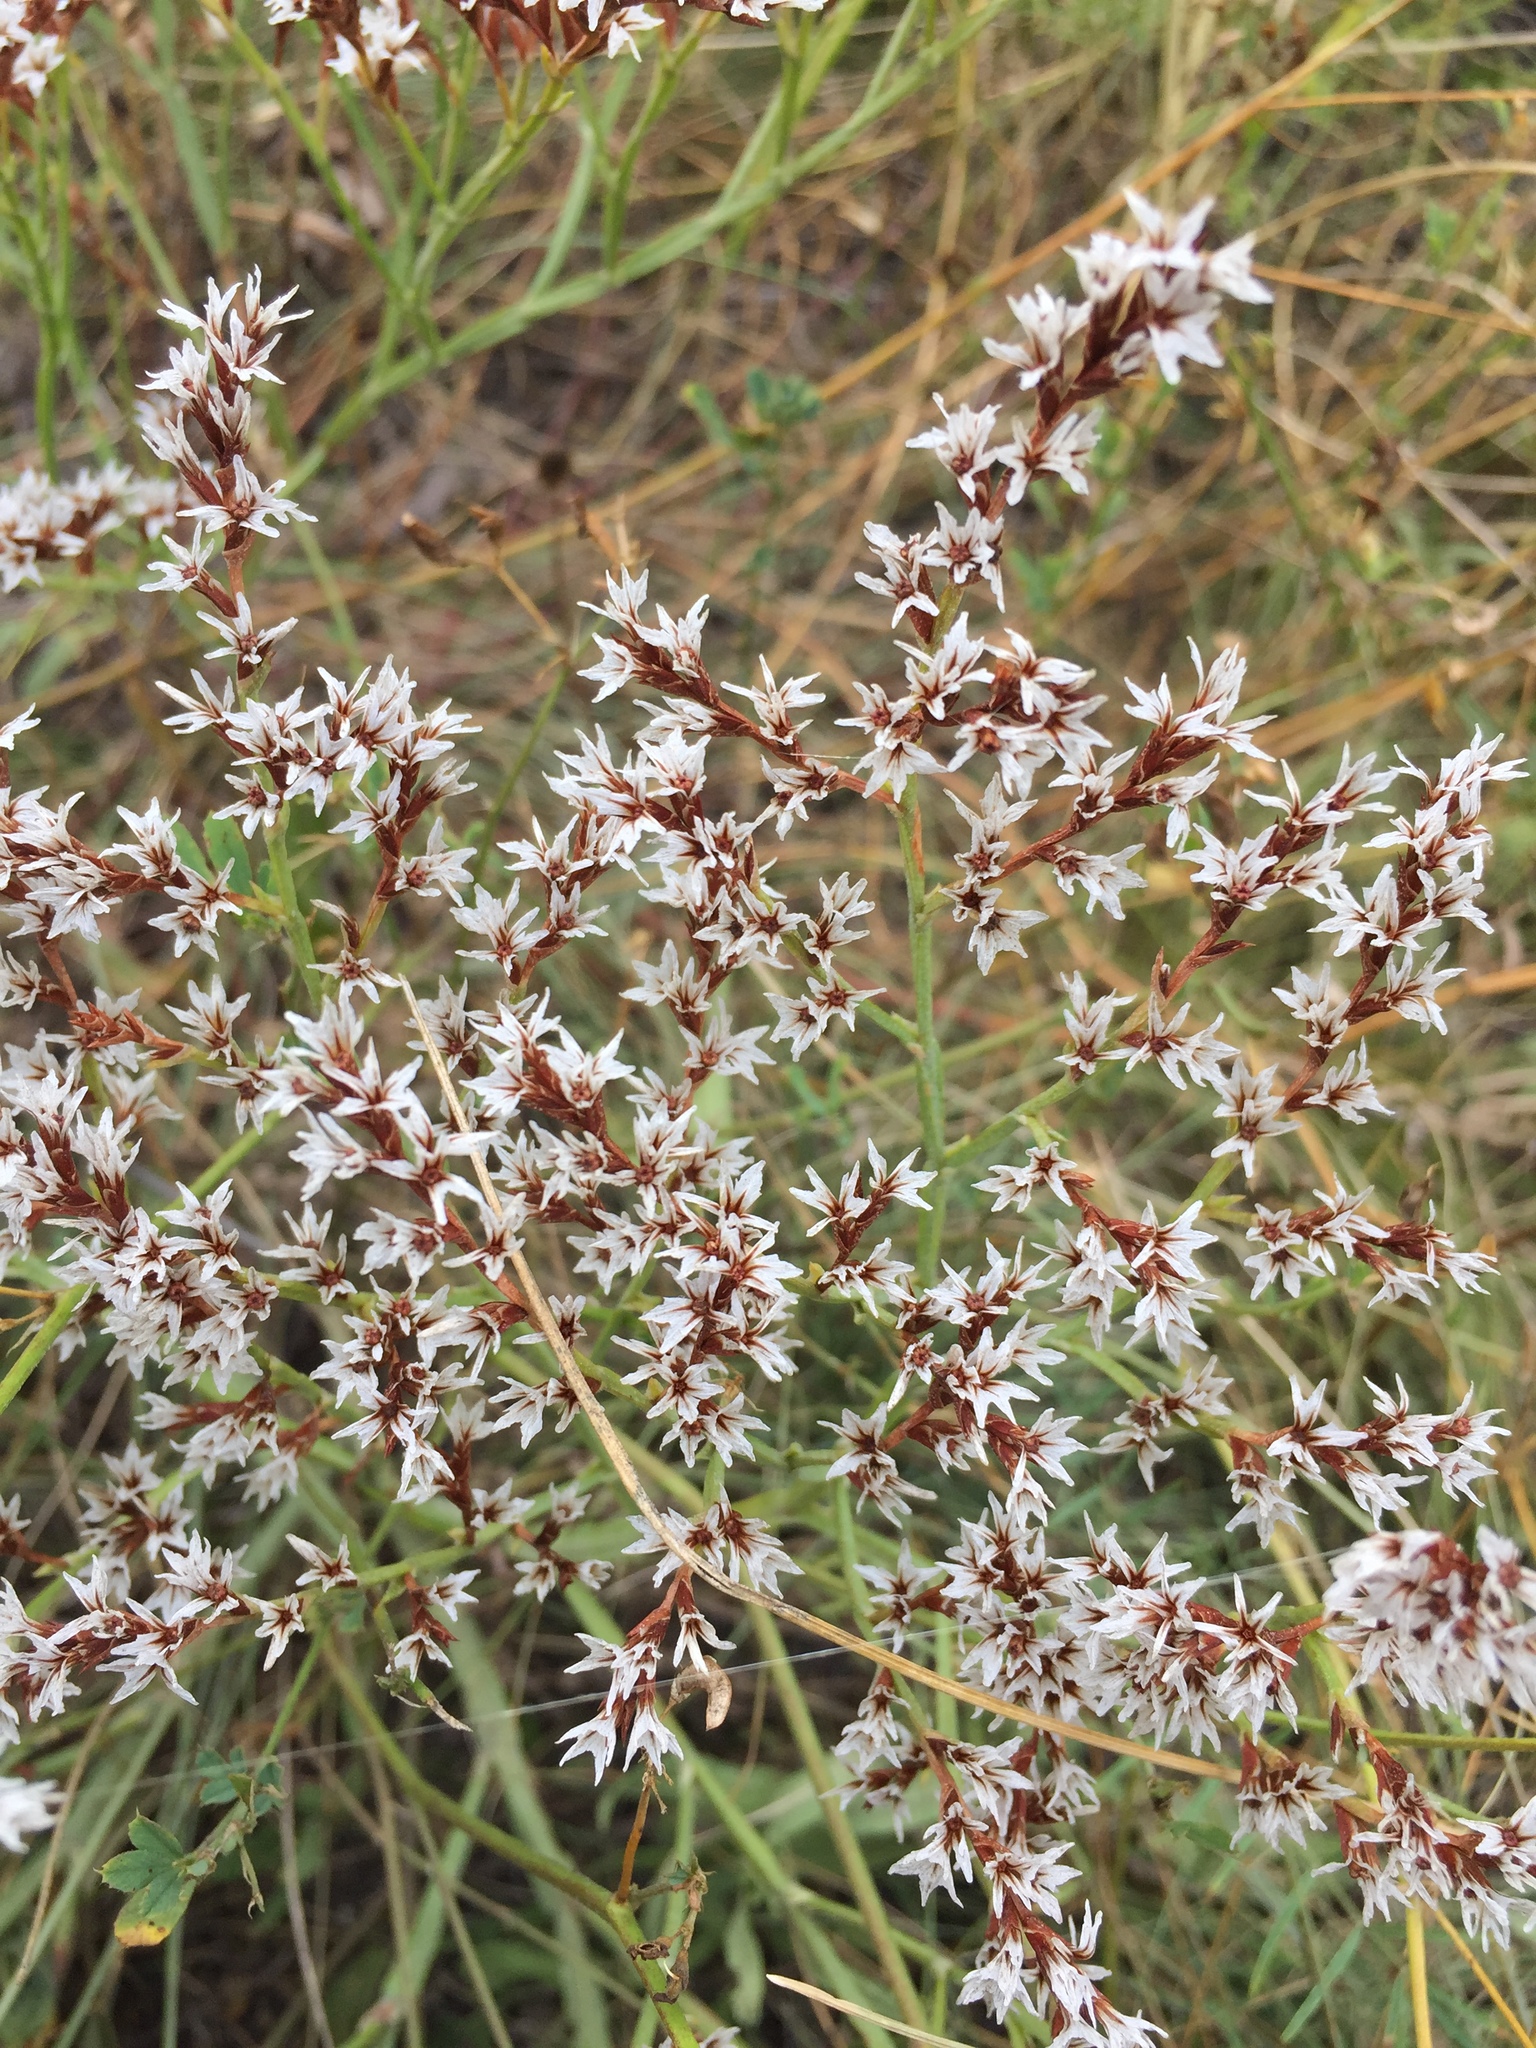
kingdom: Plantae
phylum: Tracheophyta
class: Magnoliopsida
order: Caryophyllales
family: Plumbaginaceae
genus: Goniolimon
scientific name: Goniolimon tataricum
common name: Statice
